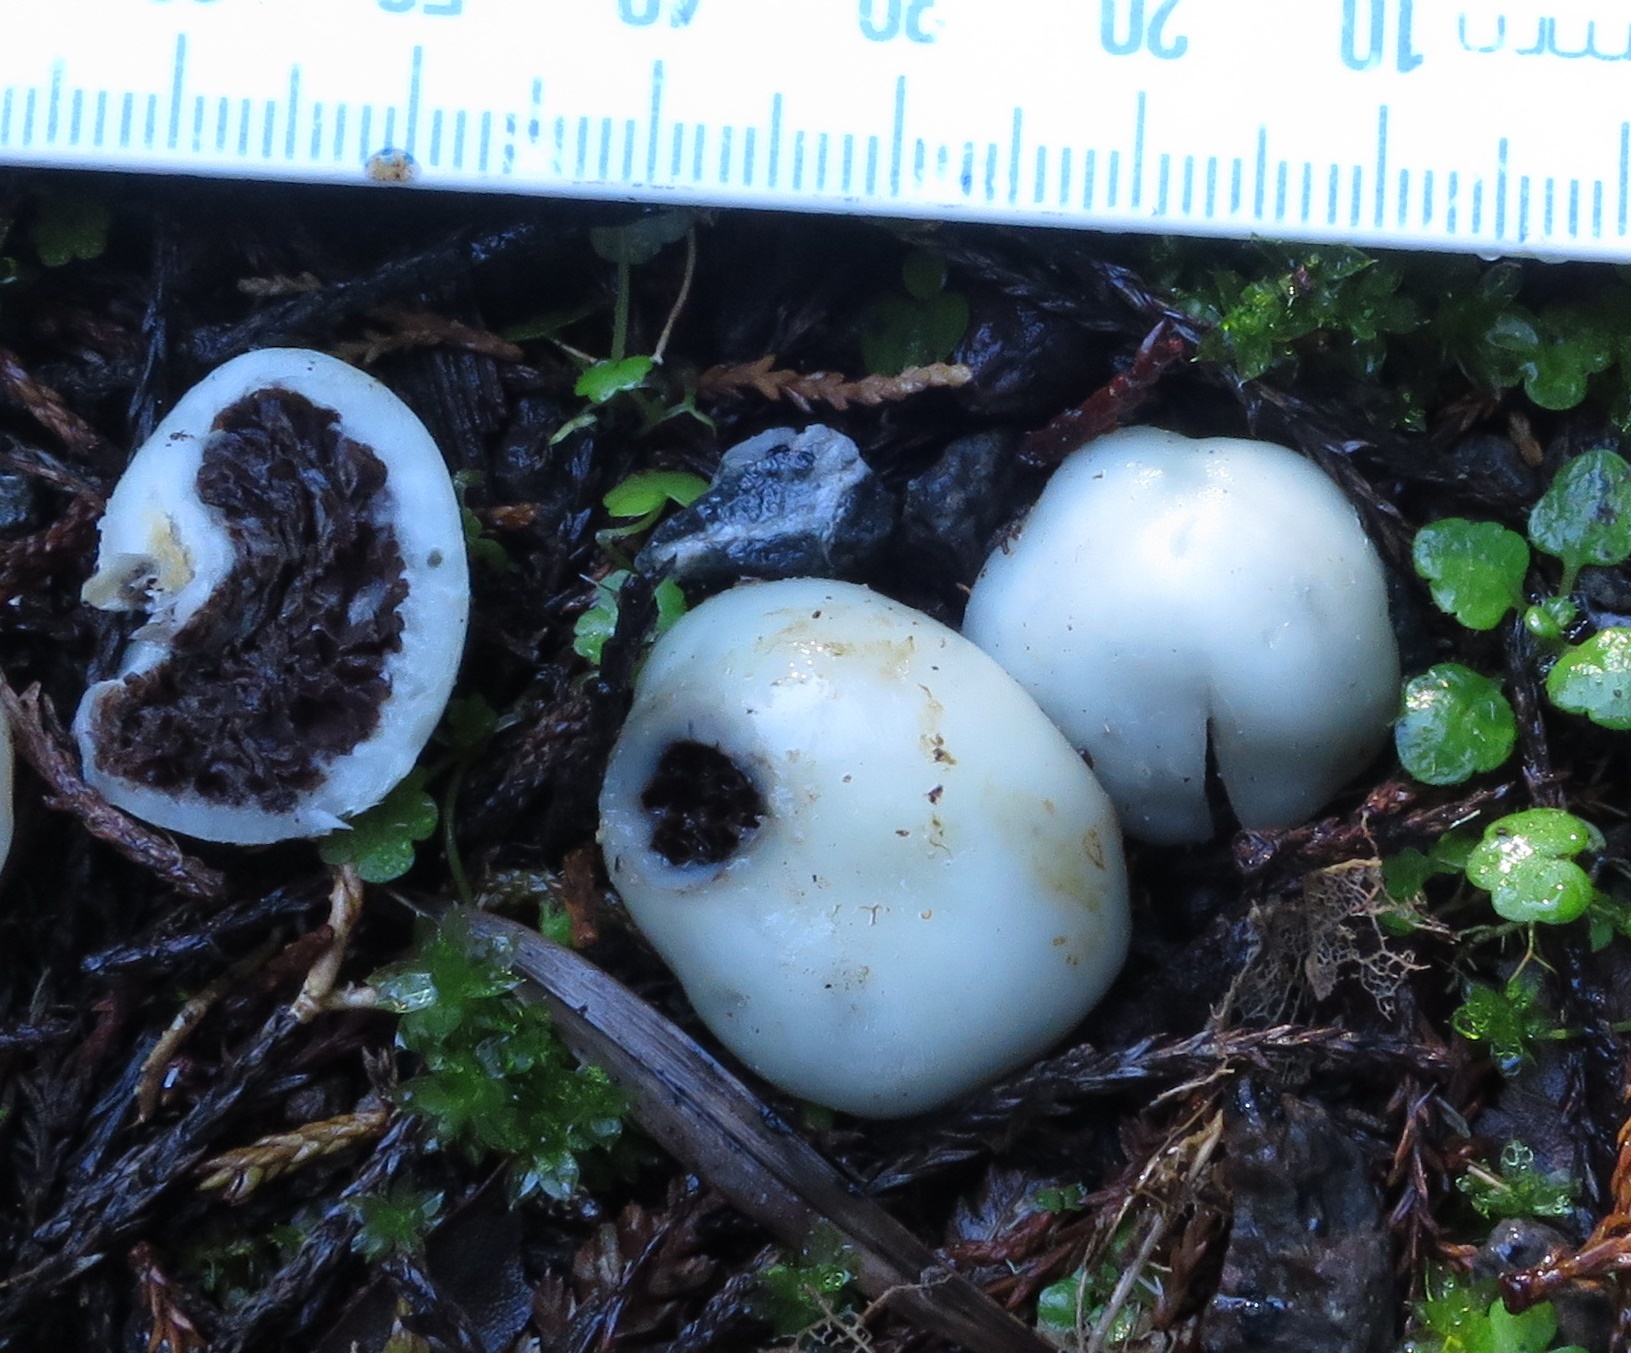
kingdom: Fungi
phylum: Basidiomycota
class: Agaricomycetes
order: Agaricales
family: Hymenogastraceae
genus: Psilocybe
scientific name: Psilocybe weraroa
